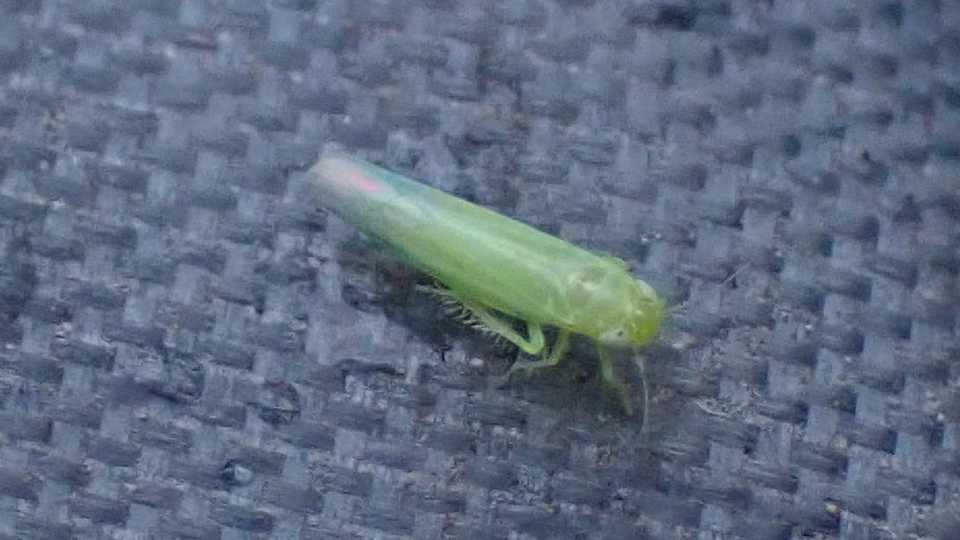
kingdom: Animalia
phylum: Arthropoda
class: Insecta
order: Hemiptera
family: Cicadellidae
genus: Hebata
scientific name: Hebata vitis
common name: The smaller green leafhopper
